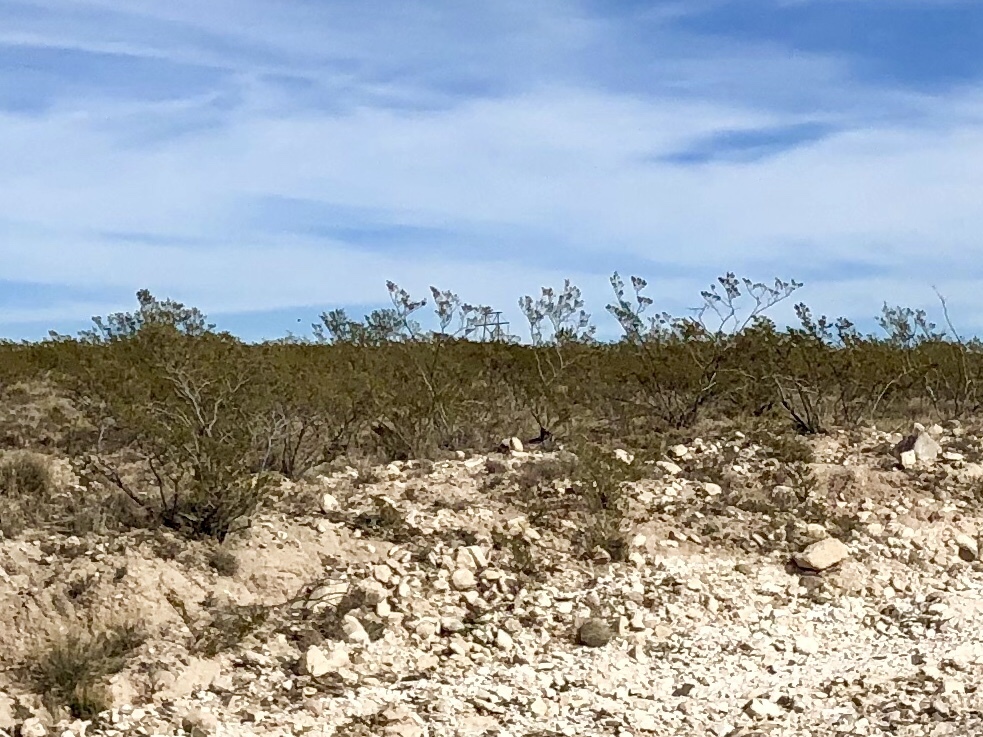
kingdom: Plantae
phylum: Tracheophyta
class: Magnoliopsida
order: Zygophyllales
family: Zygophyllaceae
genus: Larrea
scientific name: Larrea tridentata
